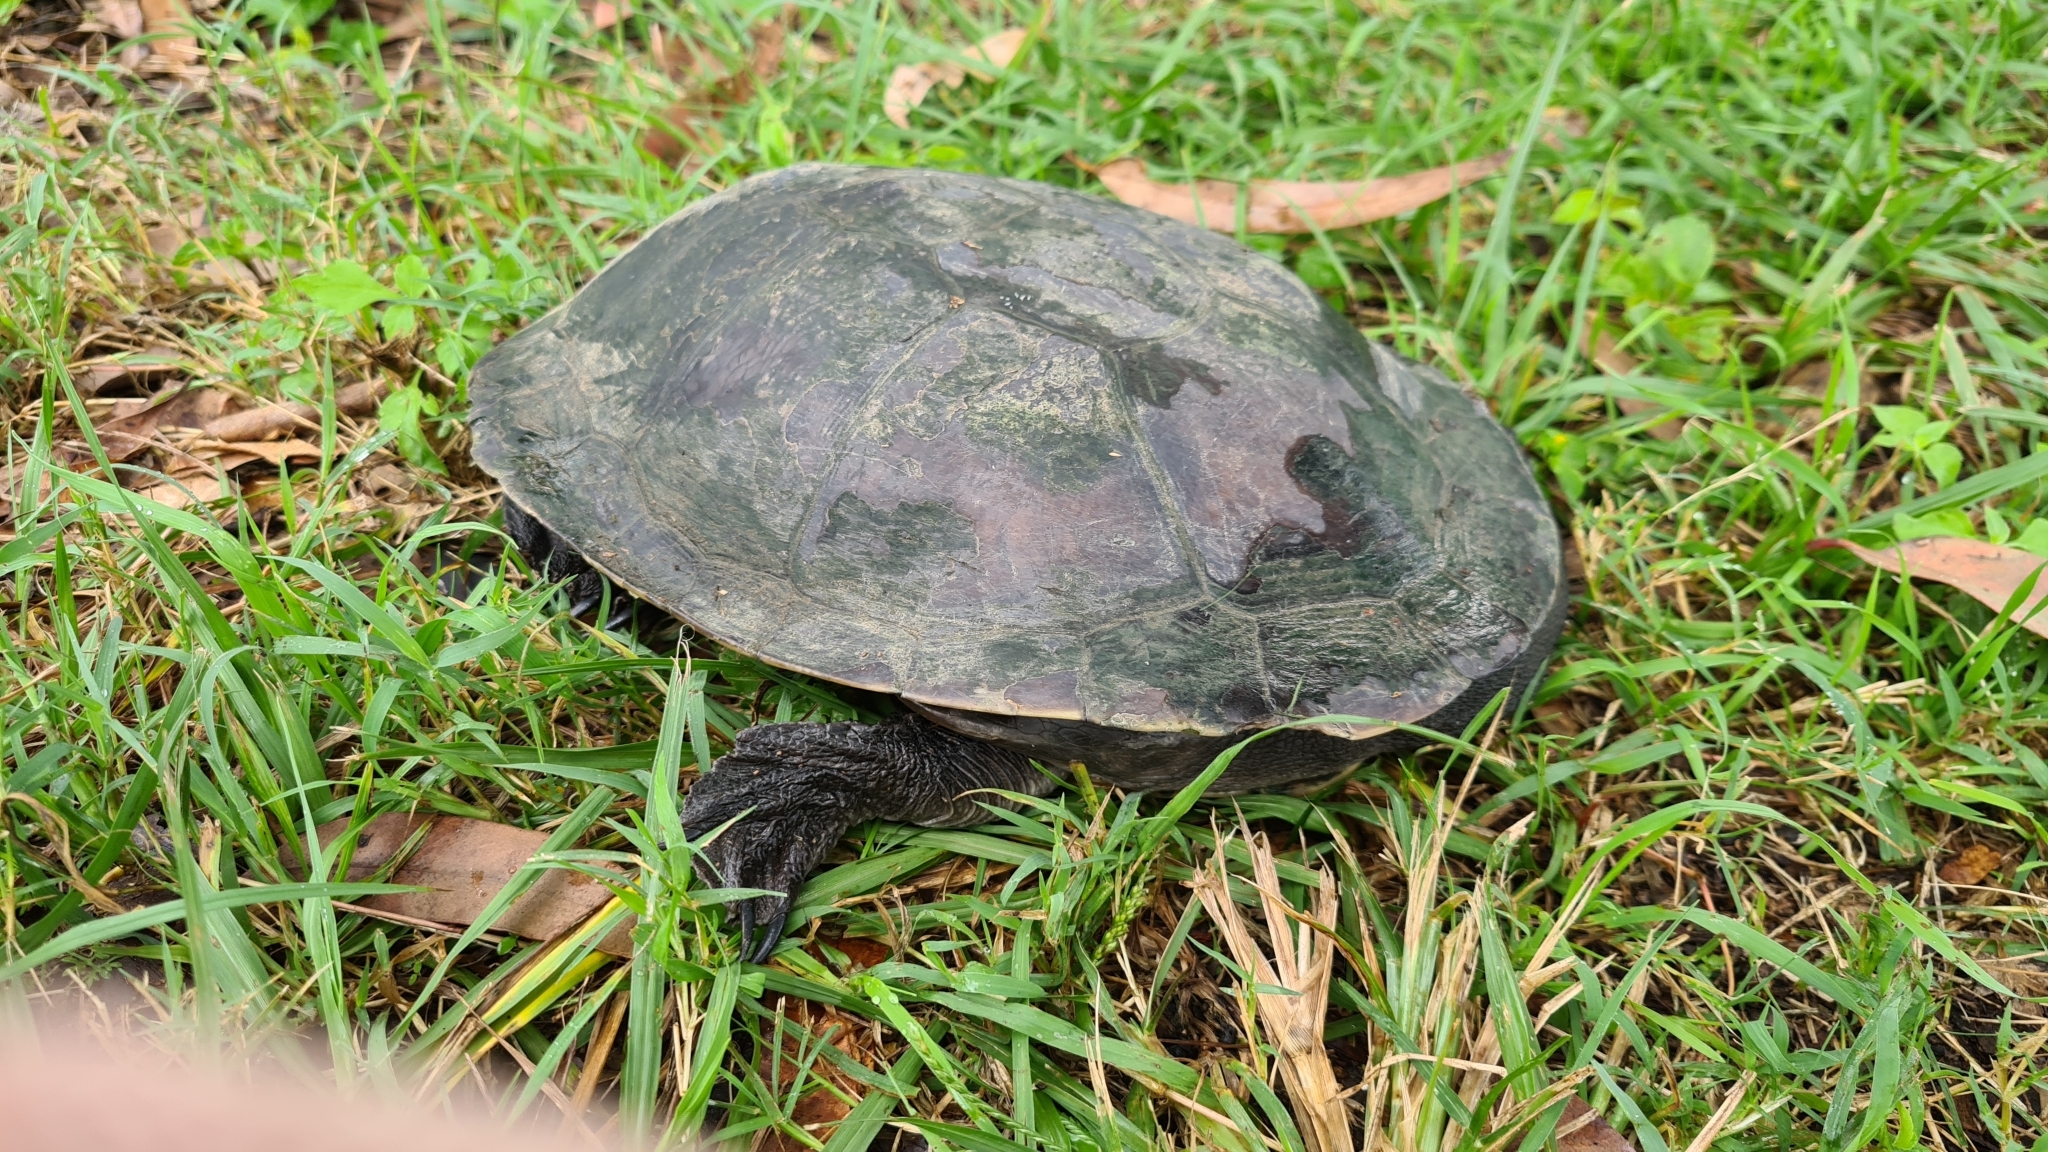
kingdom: Animalia
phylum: Chordata
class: Testudines
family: Chelidae
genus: Chelodina
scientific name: Chelodina expansa
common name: Giant snakeneck turtle
